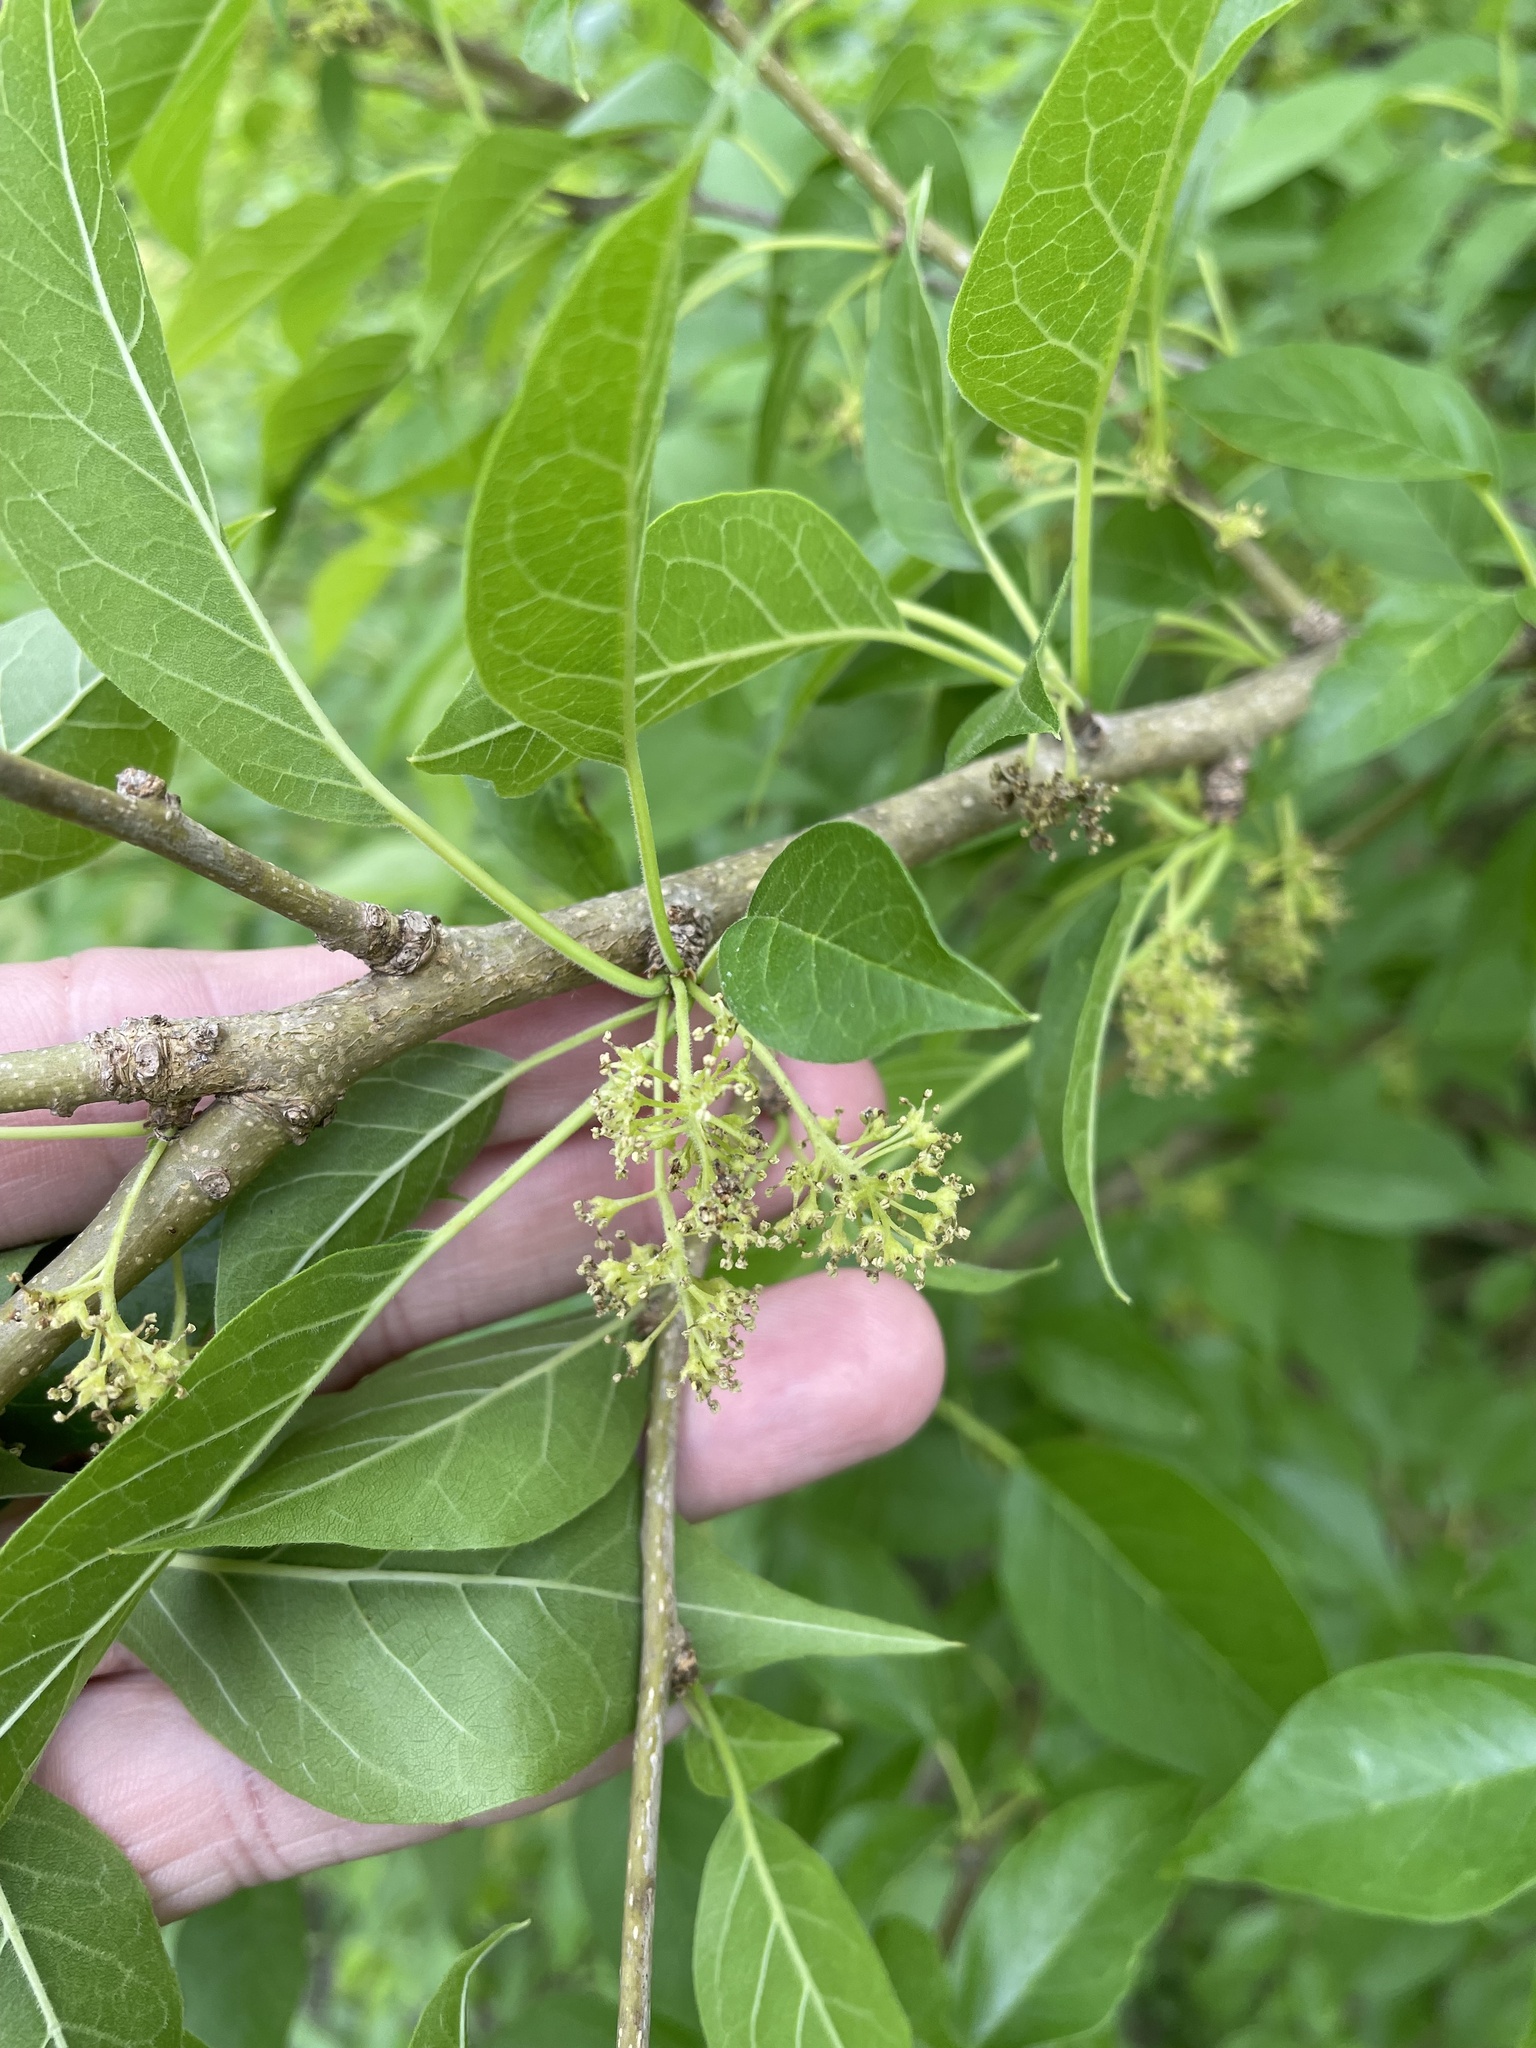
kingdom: Plantae
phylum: Tracheophyta
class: Magnoliopsida
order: Rosales
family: Moraceae
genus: Maclura
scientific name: Maclura pomifera
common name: Osage-orange
